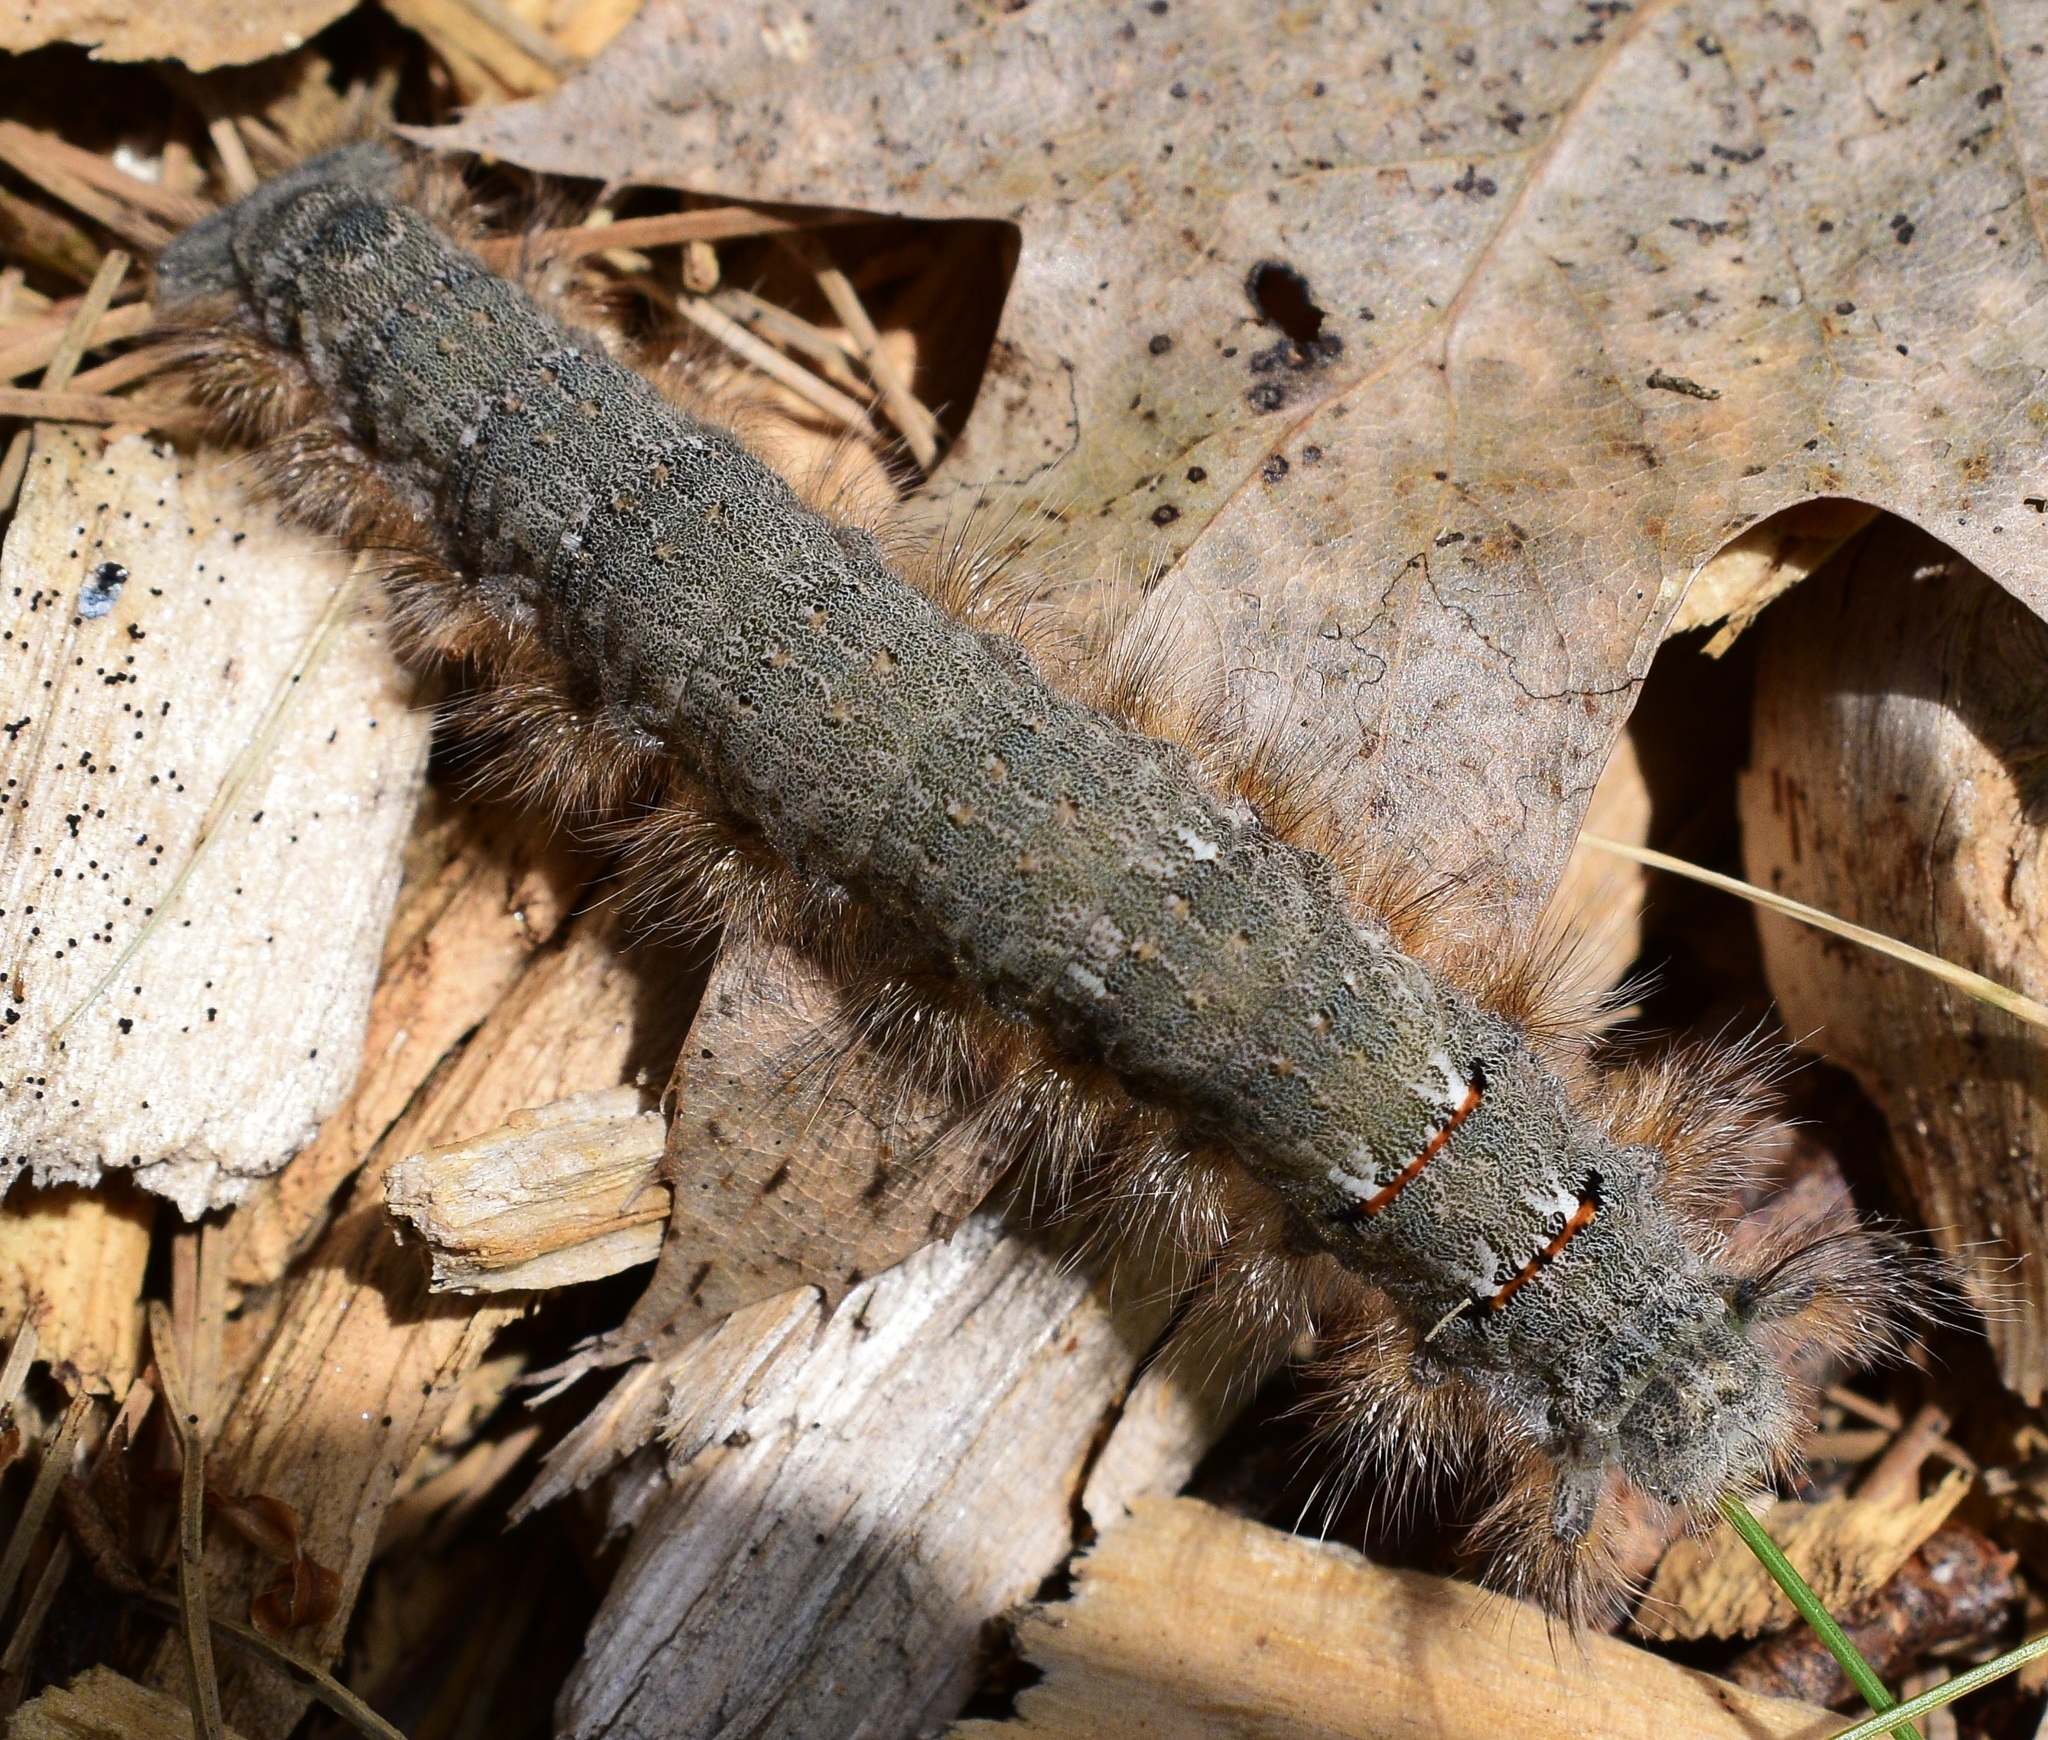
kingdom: Animalia
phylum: Arthropoda
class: Insecta
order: Lepidoptera
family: Lasiocampidae
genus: Phyllodesma
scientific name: Phyllodesma americana
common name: American lappet moth
